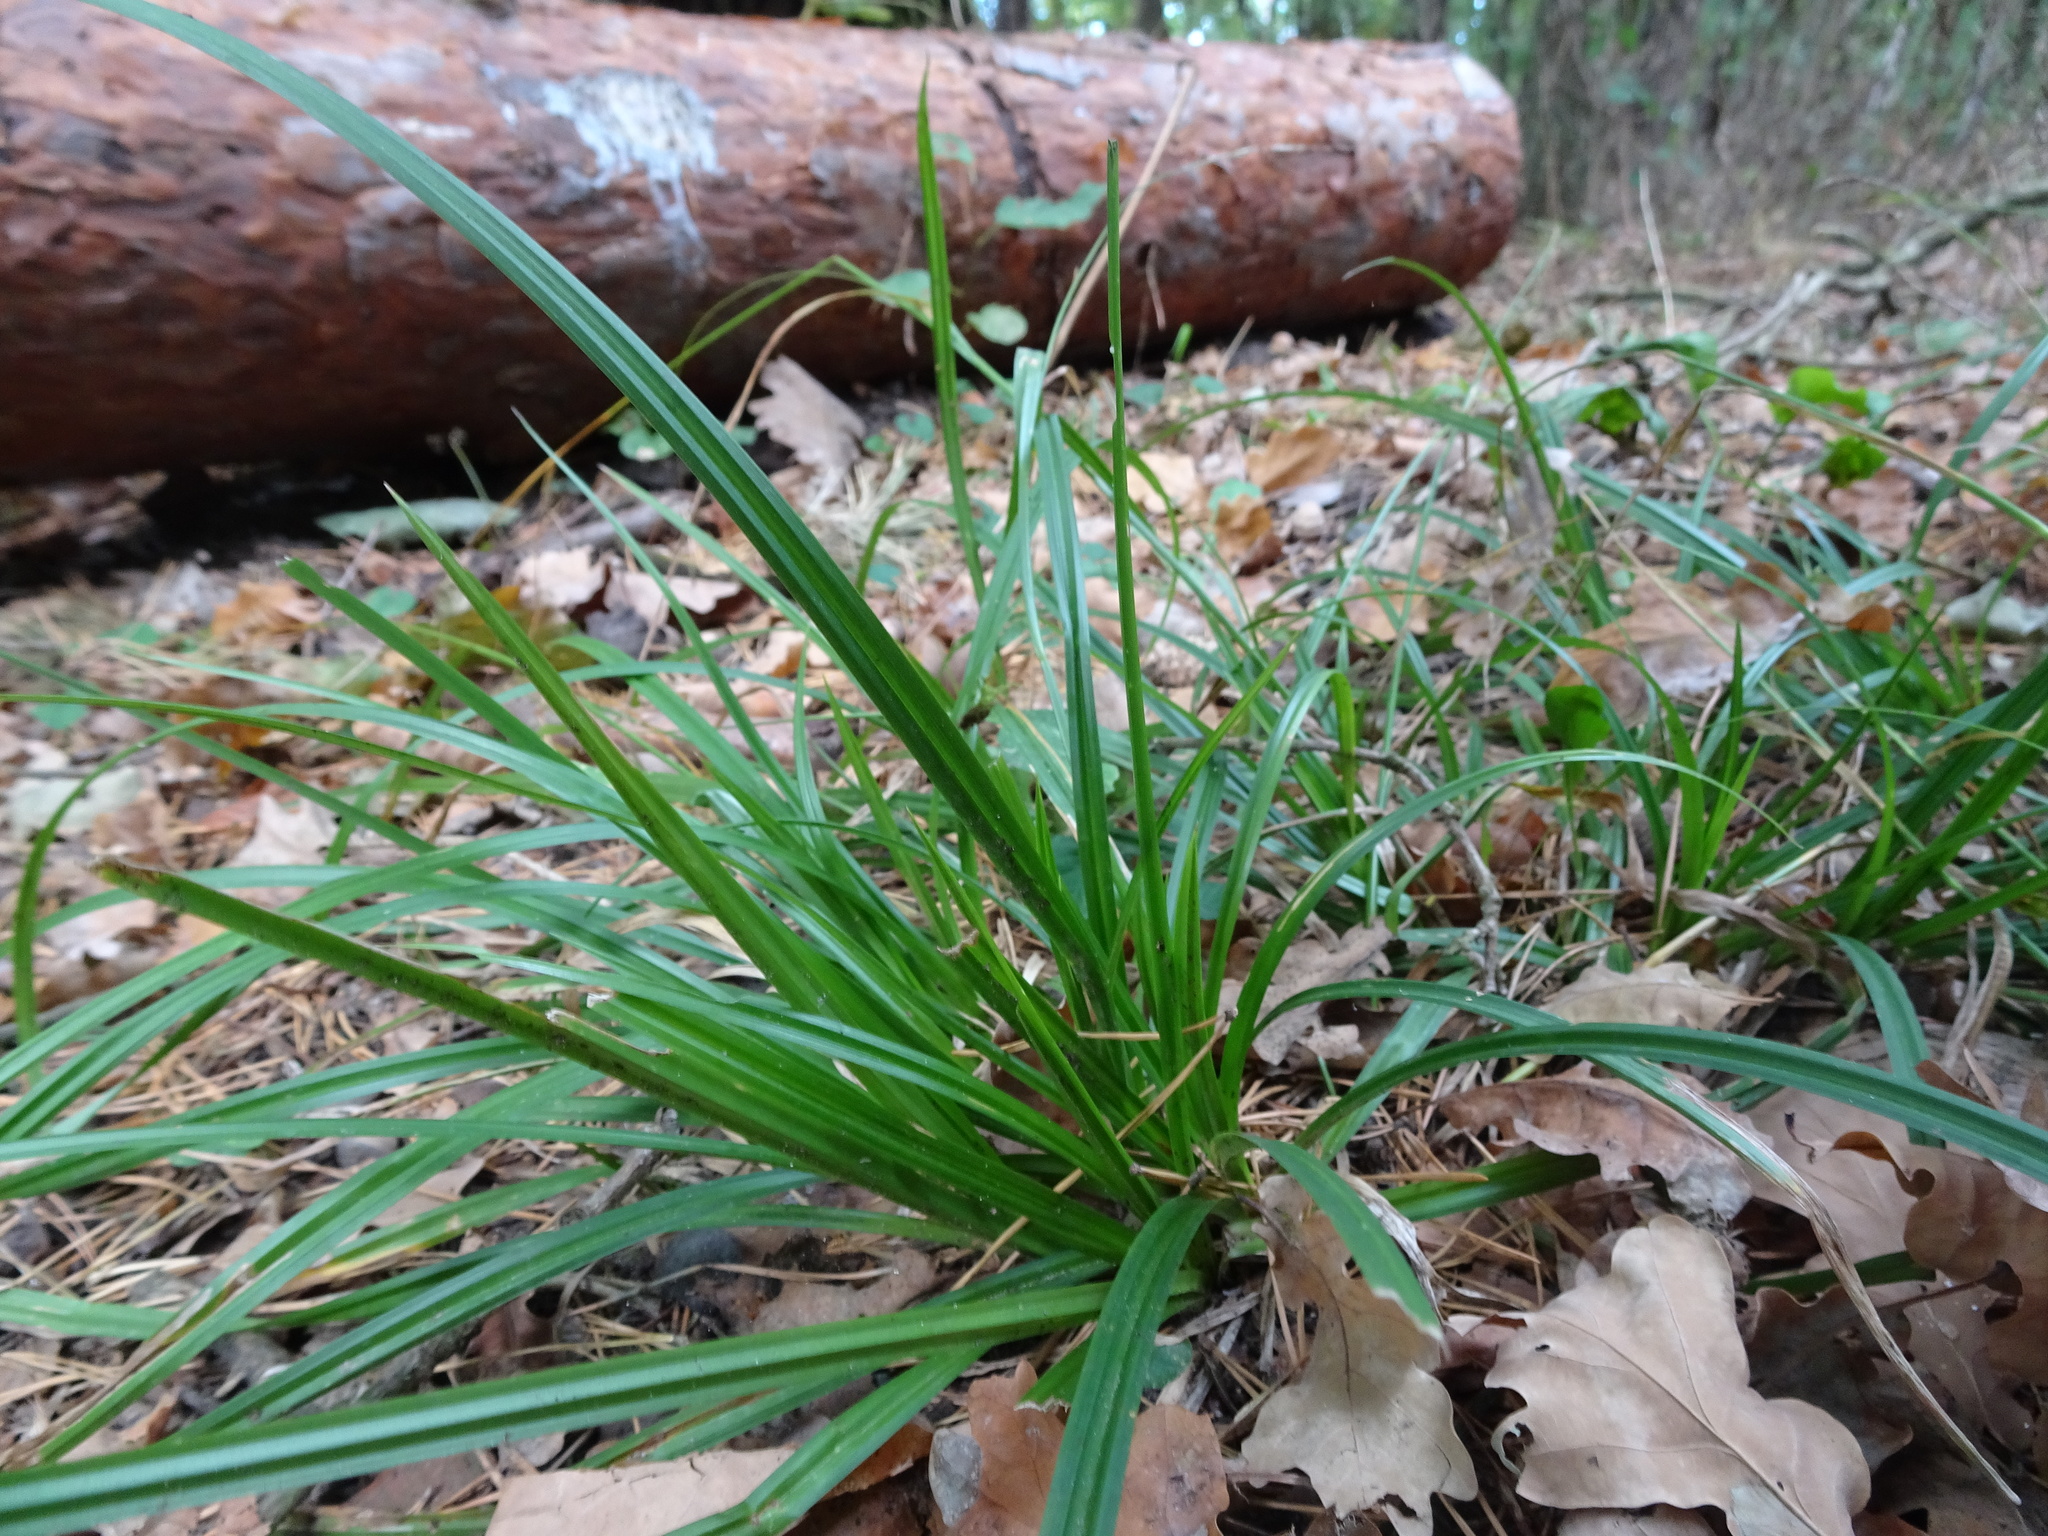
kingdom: Plantae
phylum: Tracheophyta
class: Liliopsida
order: Poales
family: Cyperaceae
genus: Carex
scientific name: Carex sylvatica
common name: Wood-sedge
